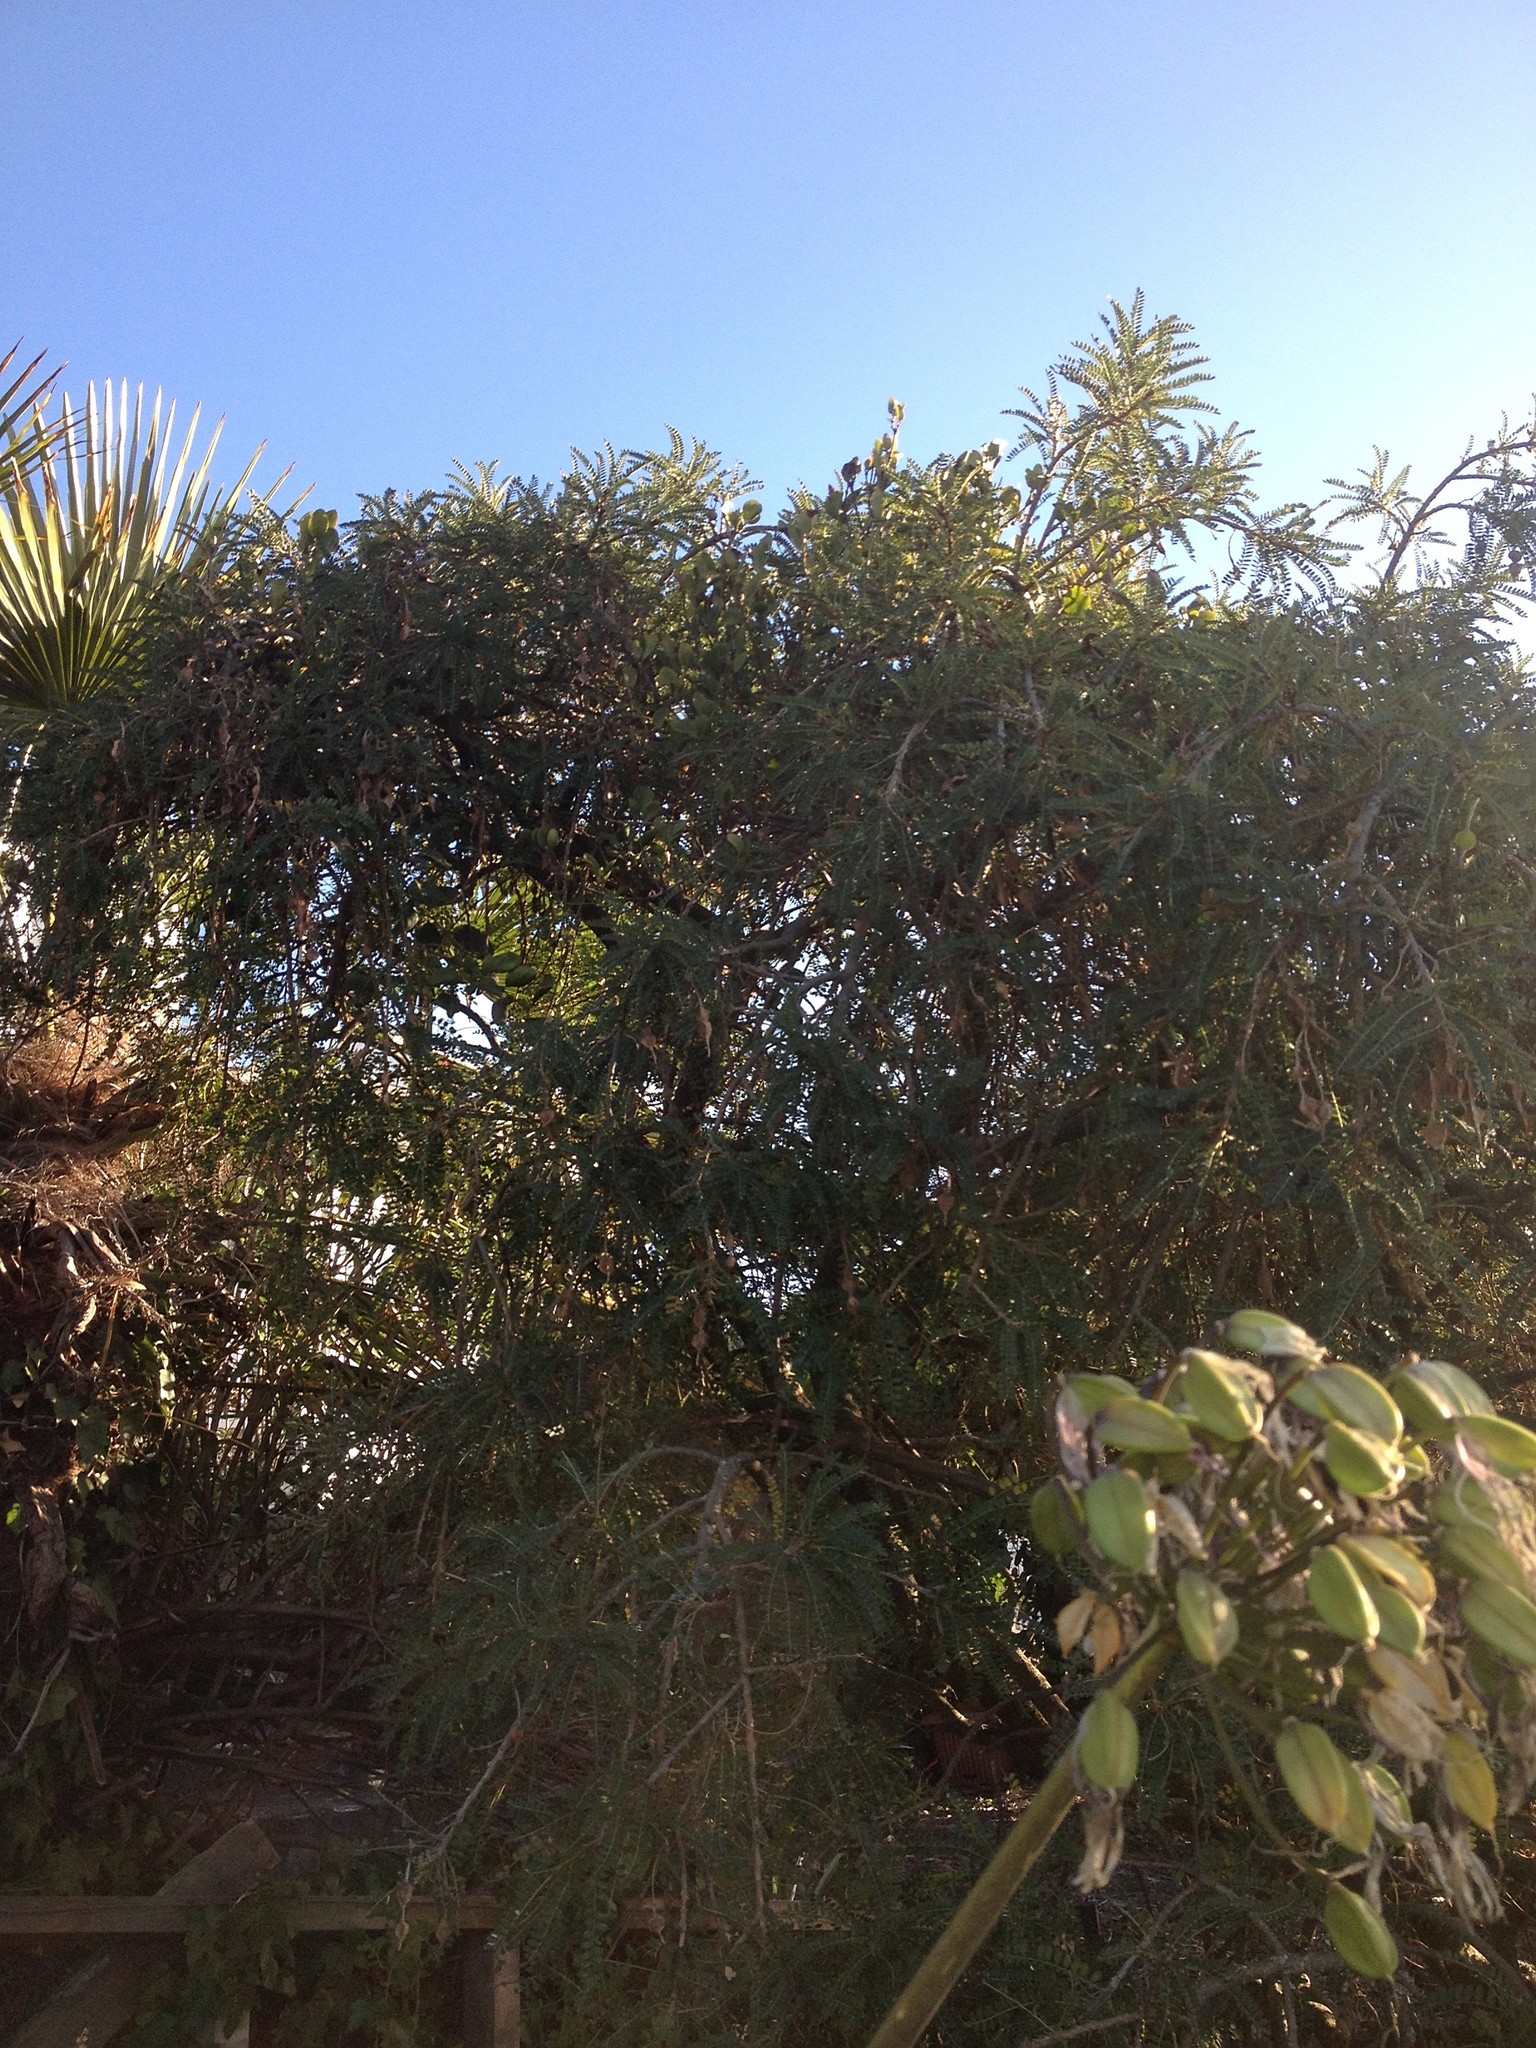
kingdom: Plantae
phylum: Tracheophyta
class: Magnoliopsida
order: Santalales
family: Loranthaceae
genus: Ileostylus
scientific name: Ileostylus micranthus
